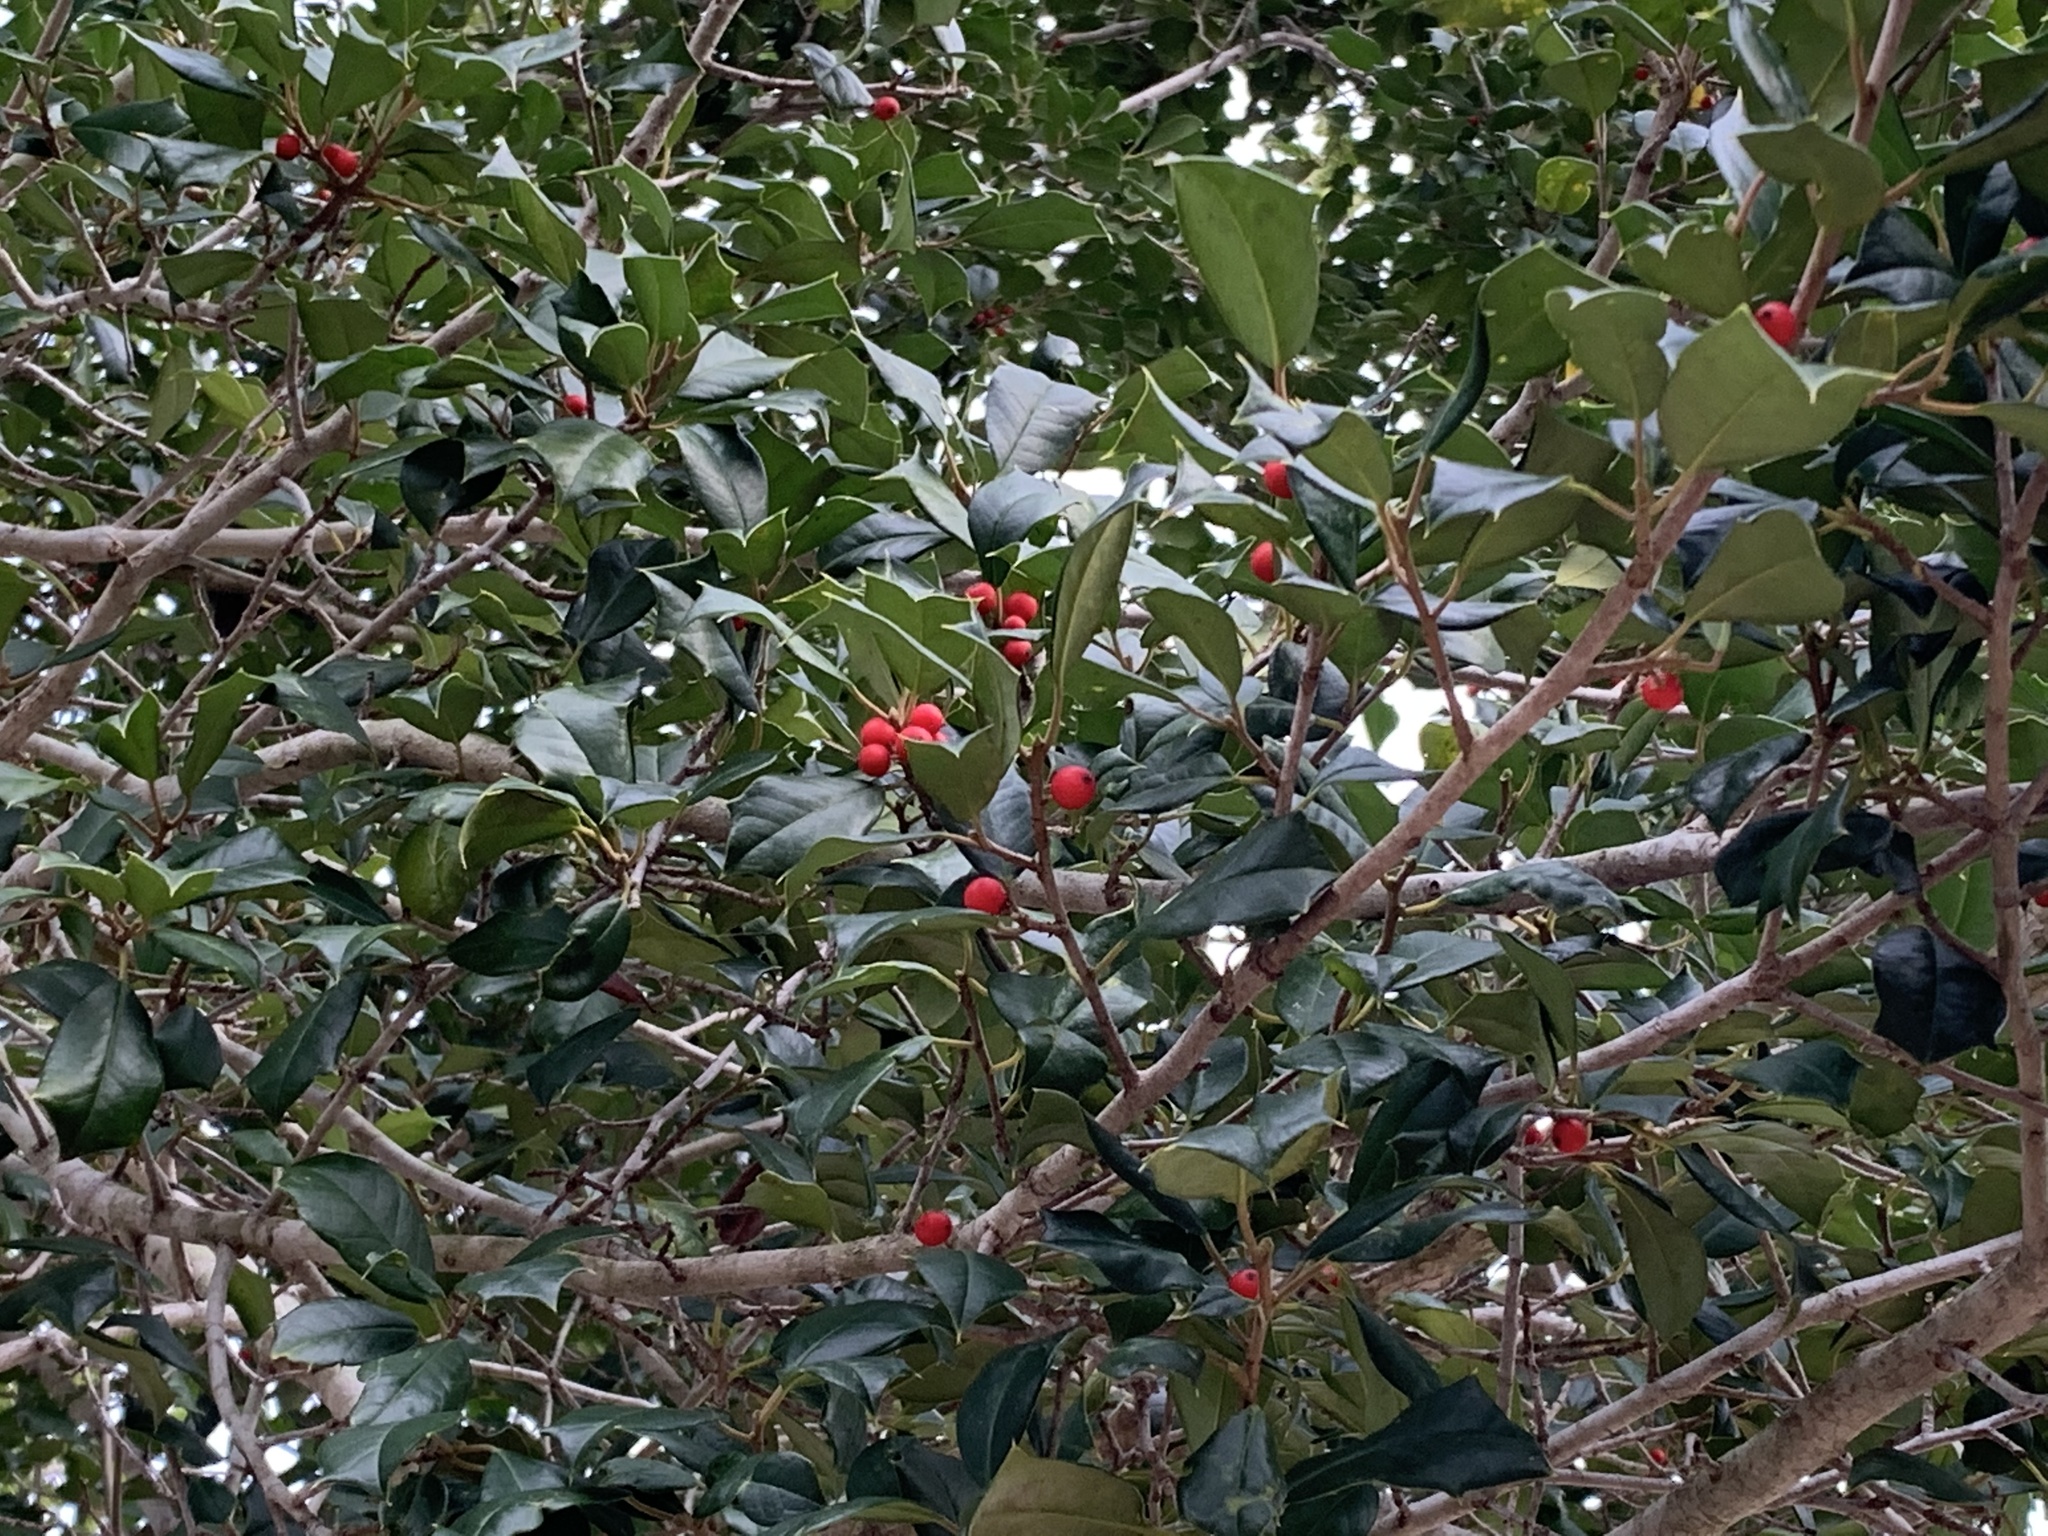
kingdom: Plantae
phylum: Tracheophyta
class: Magnoliopsida
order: Aquifoliales
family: Aquifoliaceae
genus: Ilex
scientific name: Ilex opaca
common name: American holly
